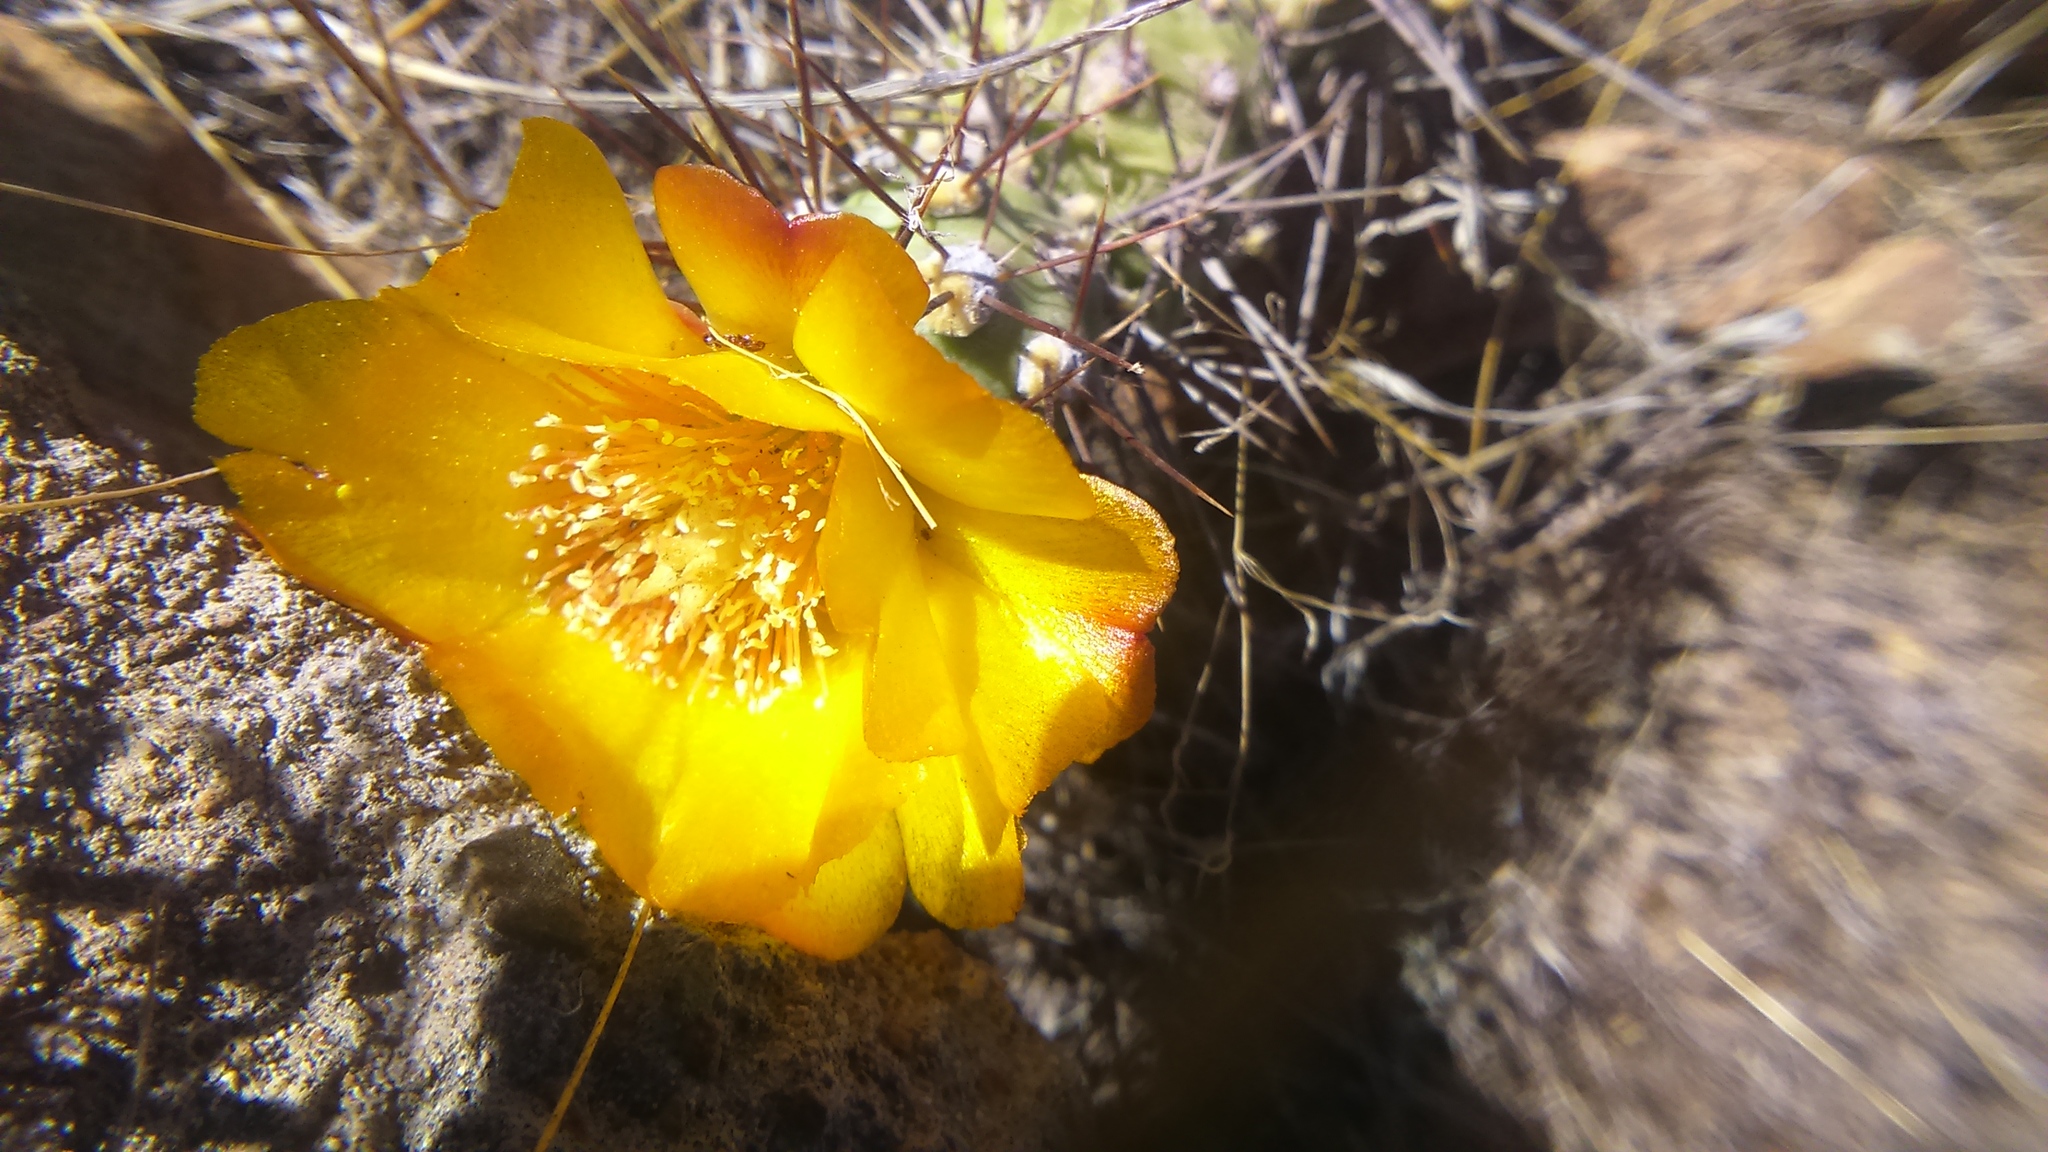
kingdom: Plantae
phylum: Tracheophyta
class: Magnoliopsida
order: Caryophyllales
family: Cactaceae
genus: Cumulopuntia
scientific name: Cumulopuntia leucophaea
